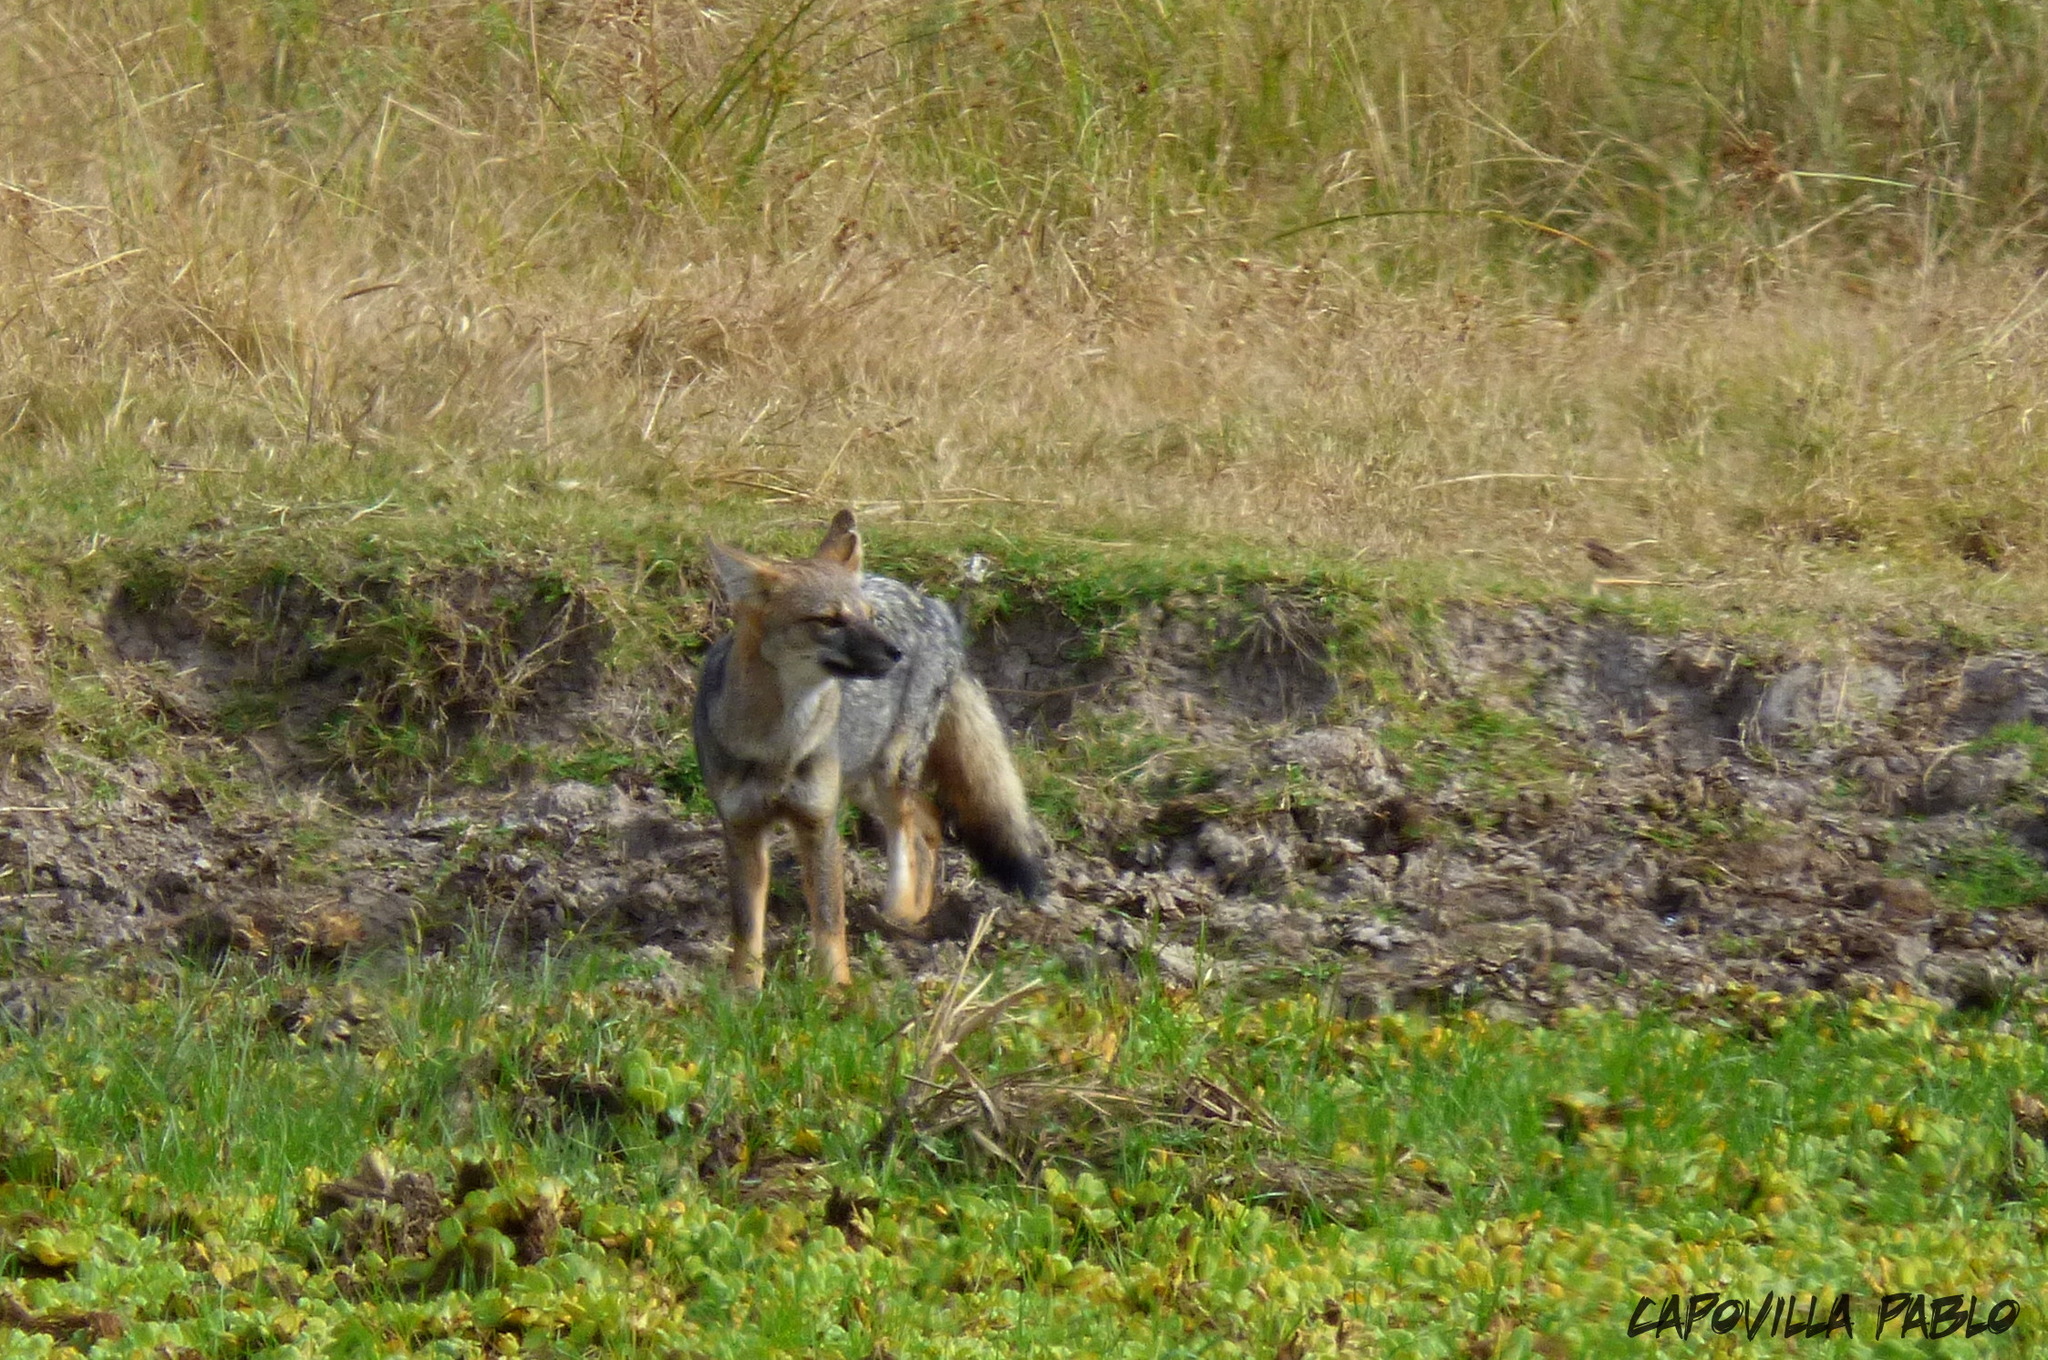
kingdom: Animalia
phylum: Chordata
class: Mammalia
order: Carnivora
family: Canidae
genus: Lycalopex
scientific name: Lycalopex gymnocercus
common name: Pampas fox
